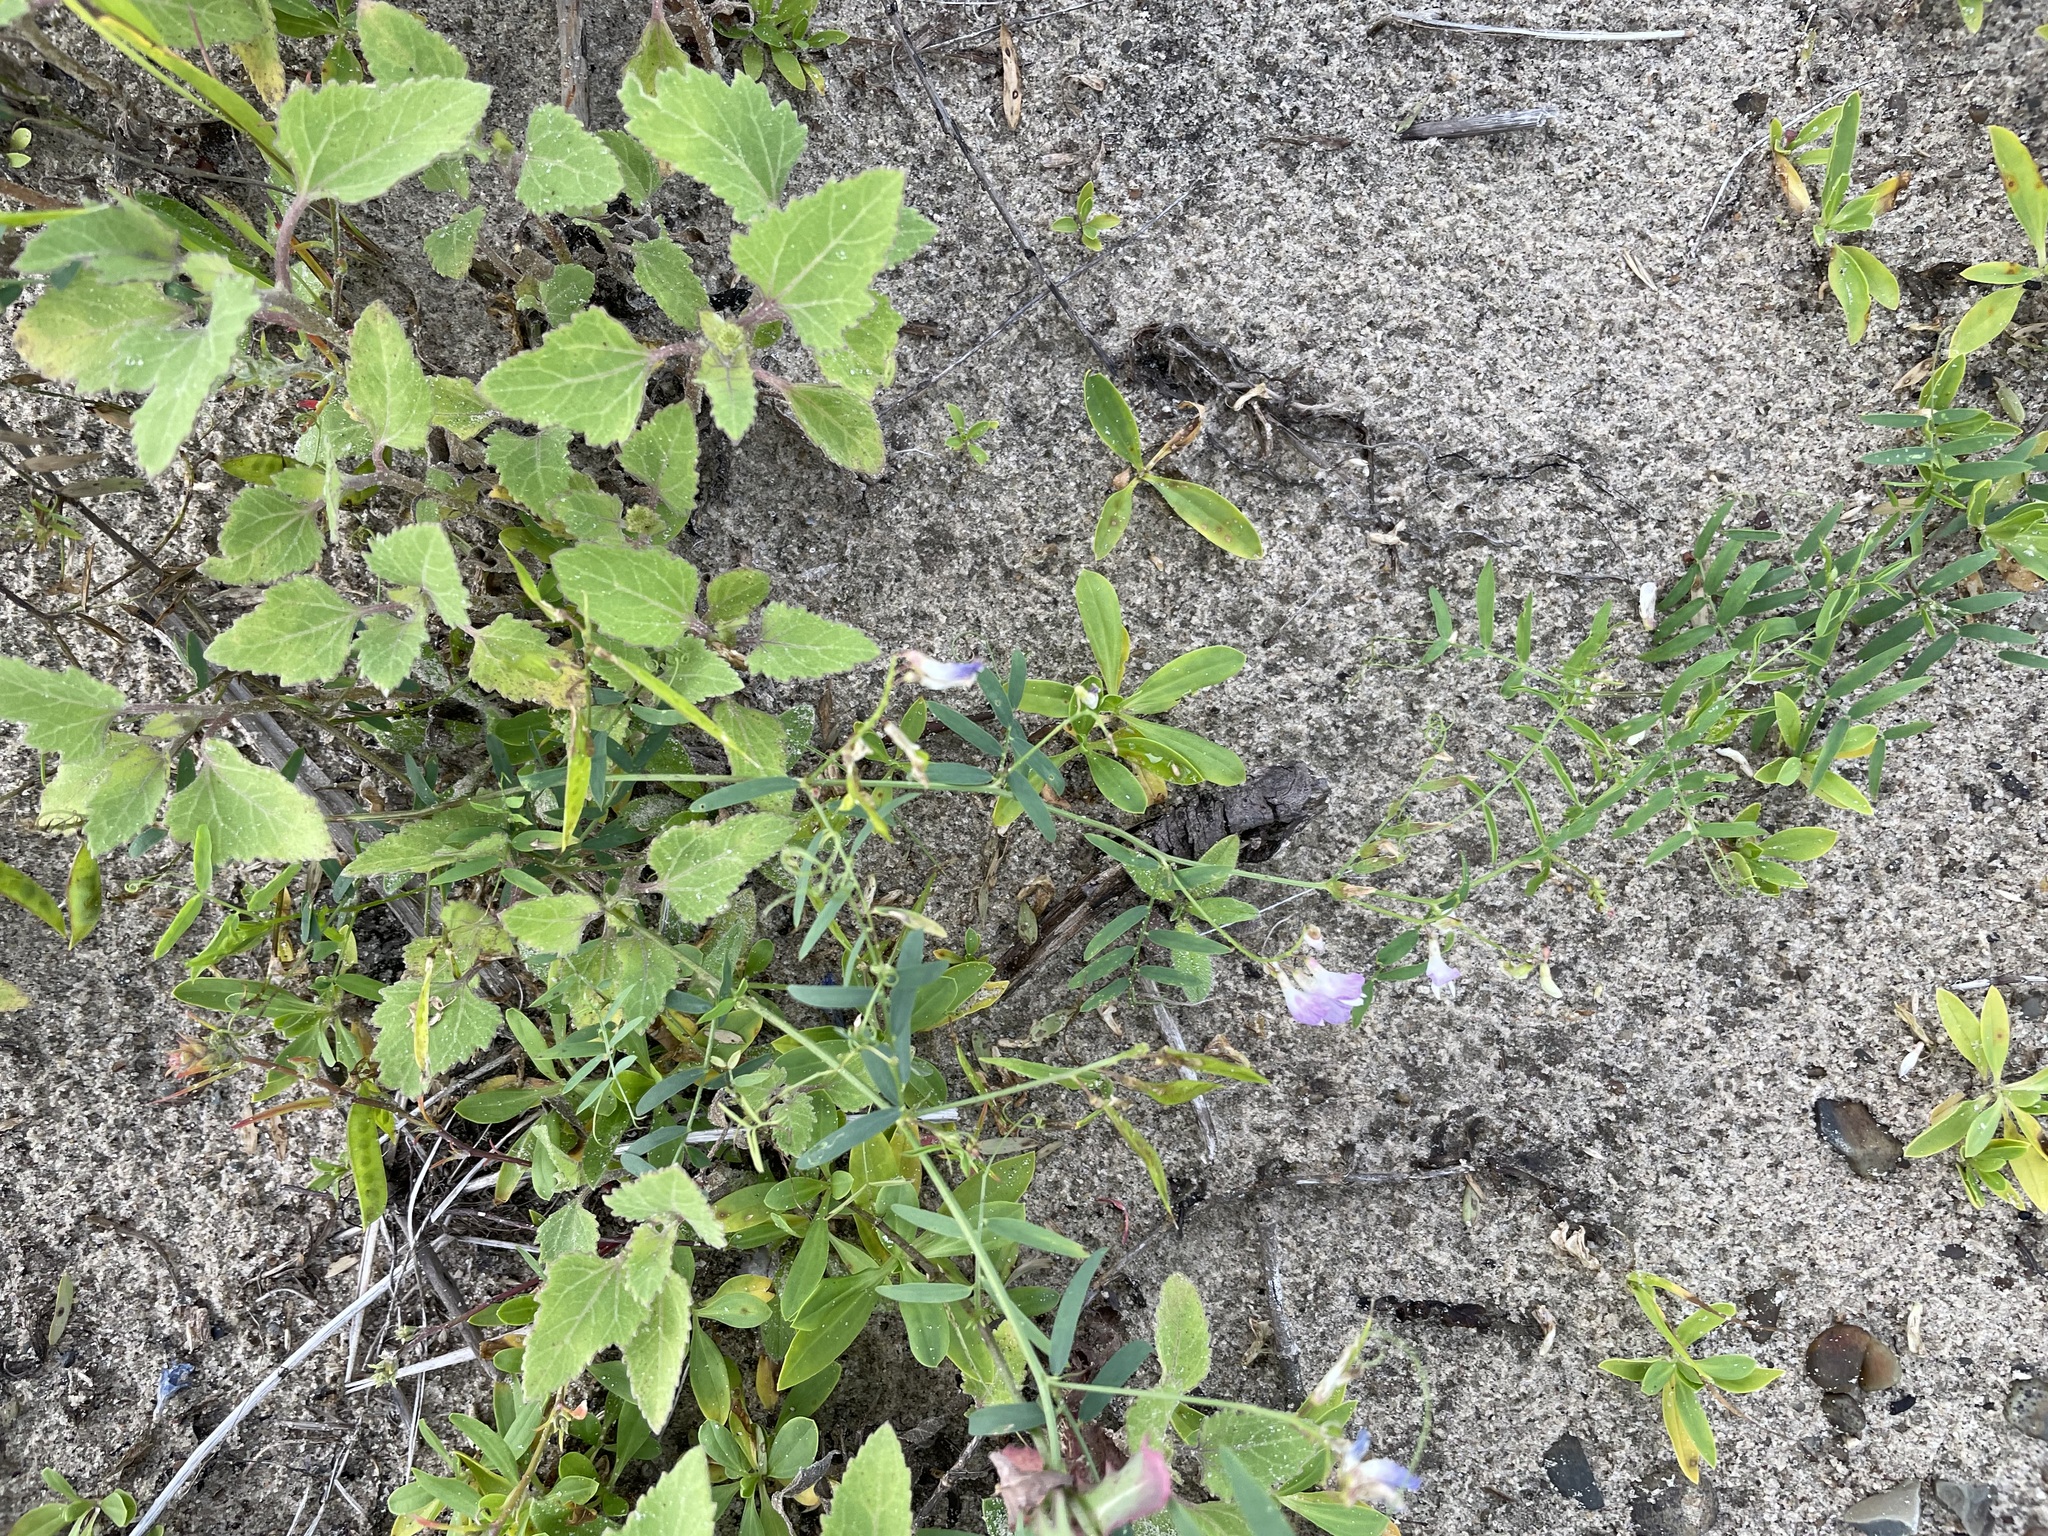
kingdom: Plantae
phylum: Tracheophyta
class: Magnoliopsida
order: Asterales
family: Asteraceae
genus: Xanthium
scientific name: Xanthium orientale
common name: Californian burr
